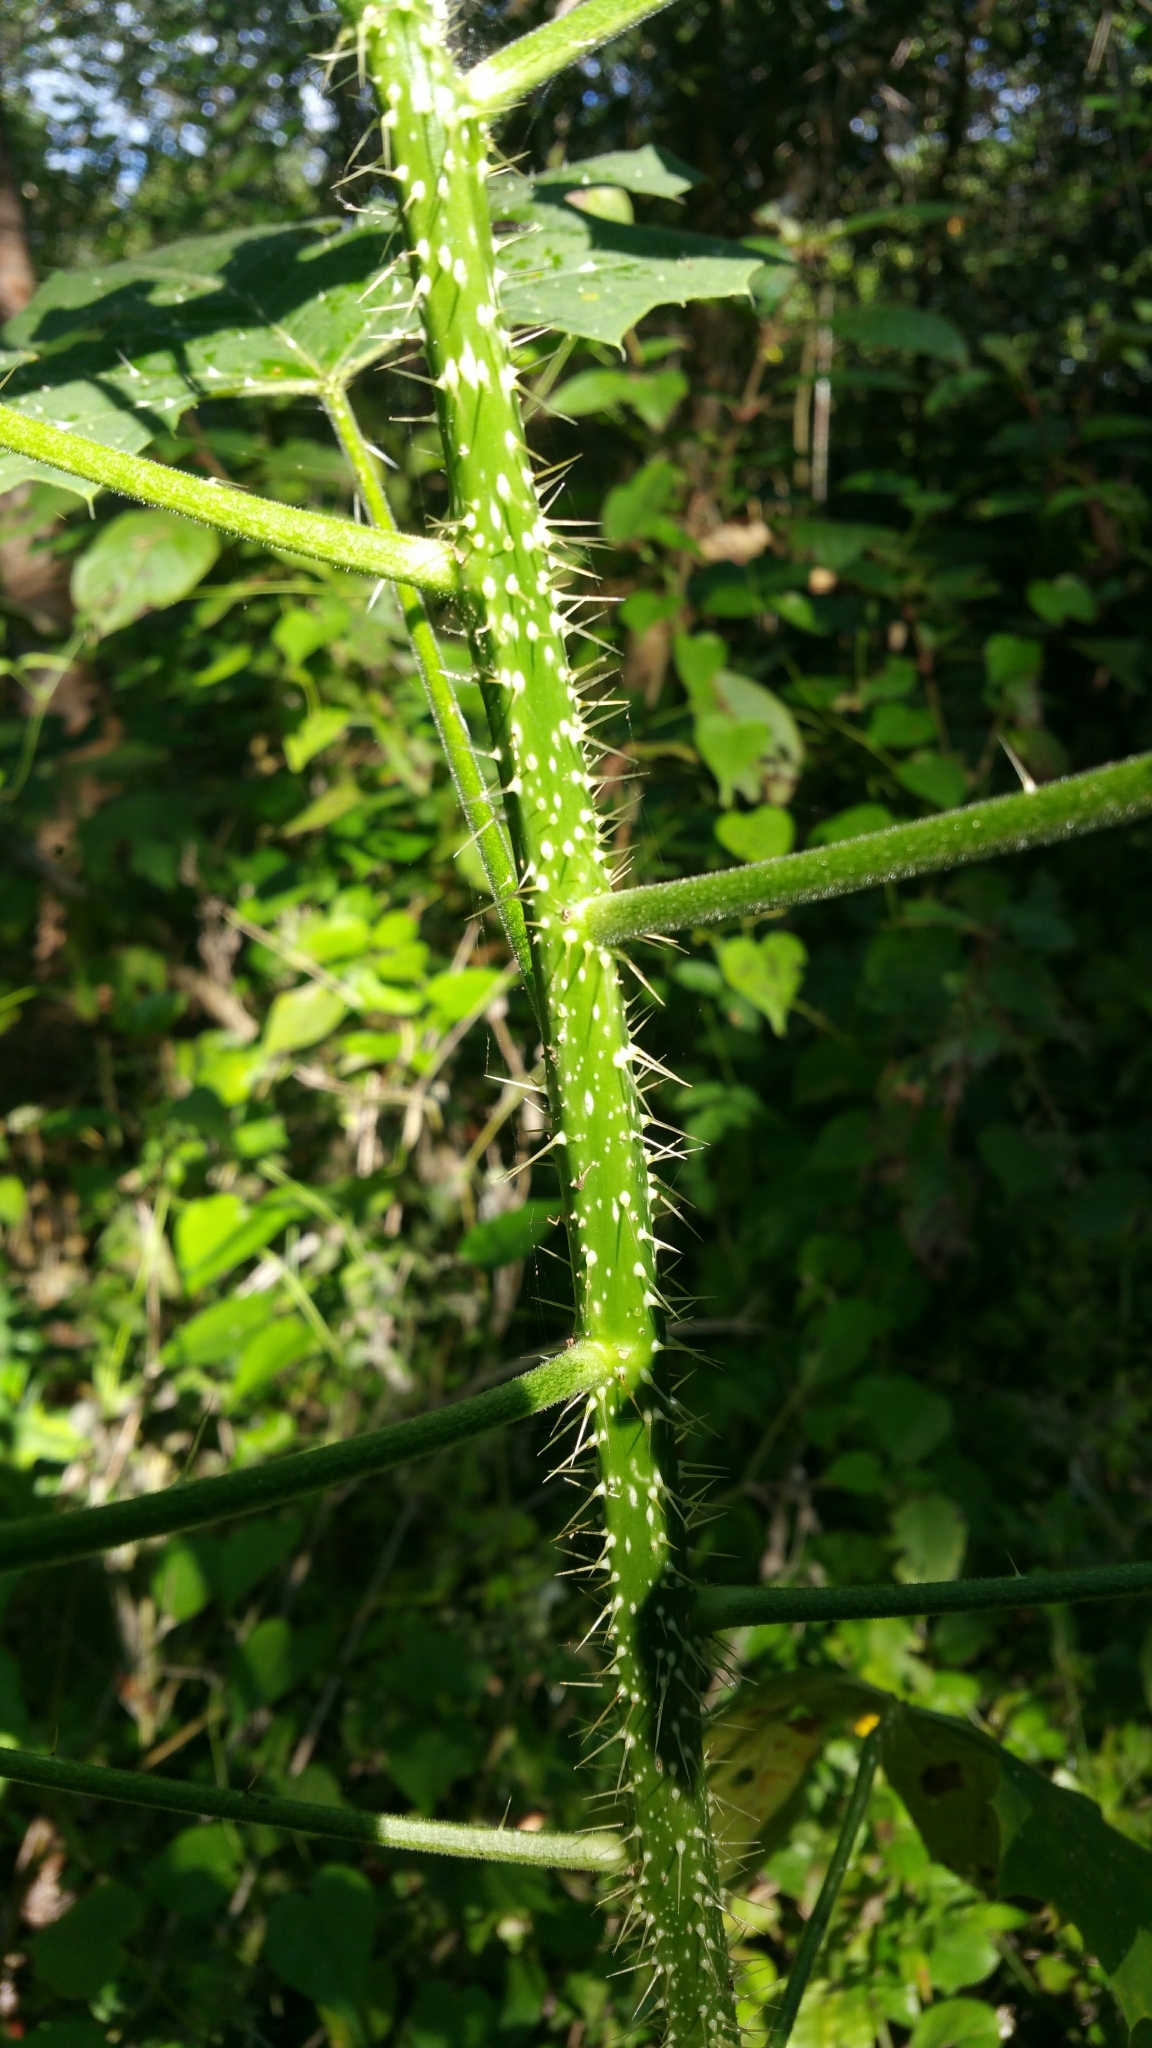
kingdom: Plantae
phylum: Tracheophyta
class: Magnoliopsida
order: Malpighiales
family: Euphorbiaceae
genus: Cnidoscolus
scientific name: Cnidoscolus souzae
